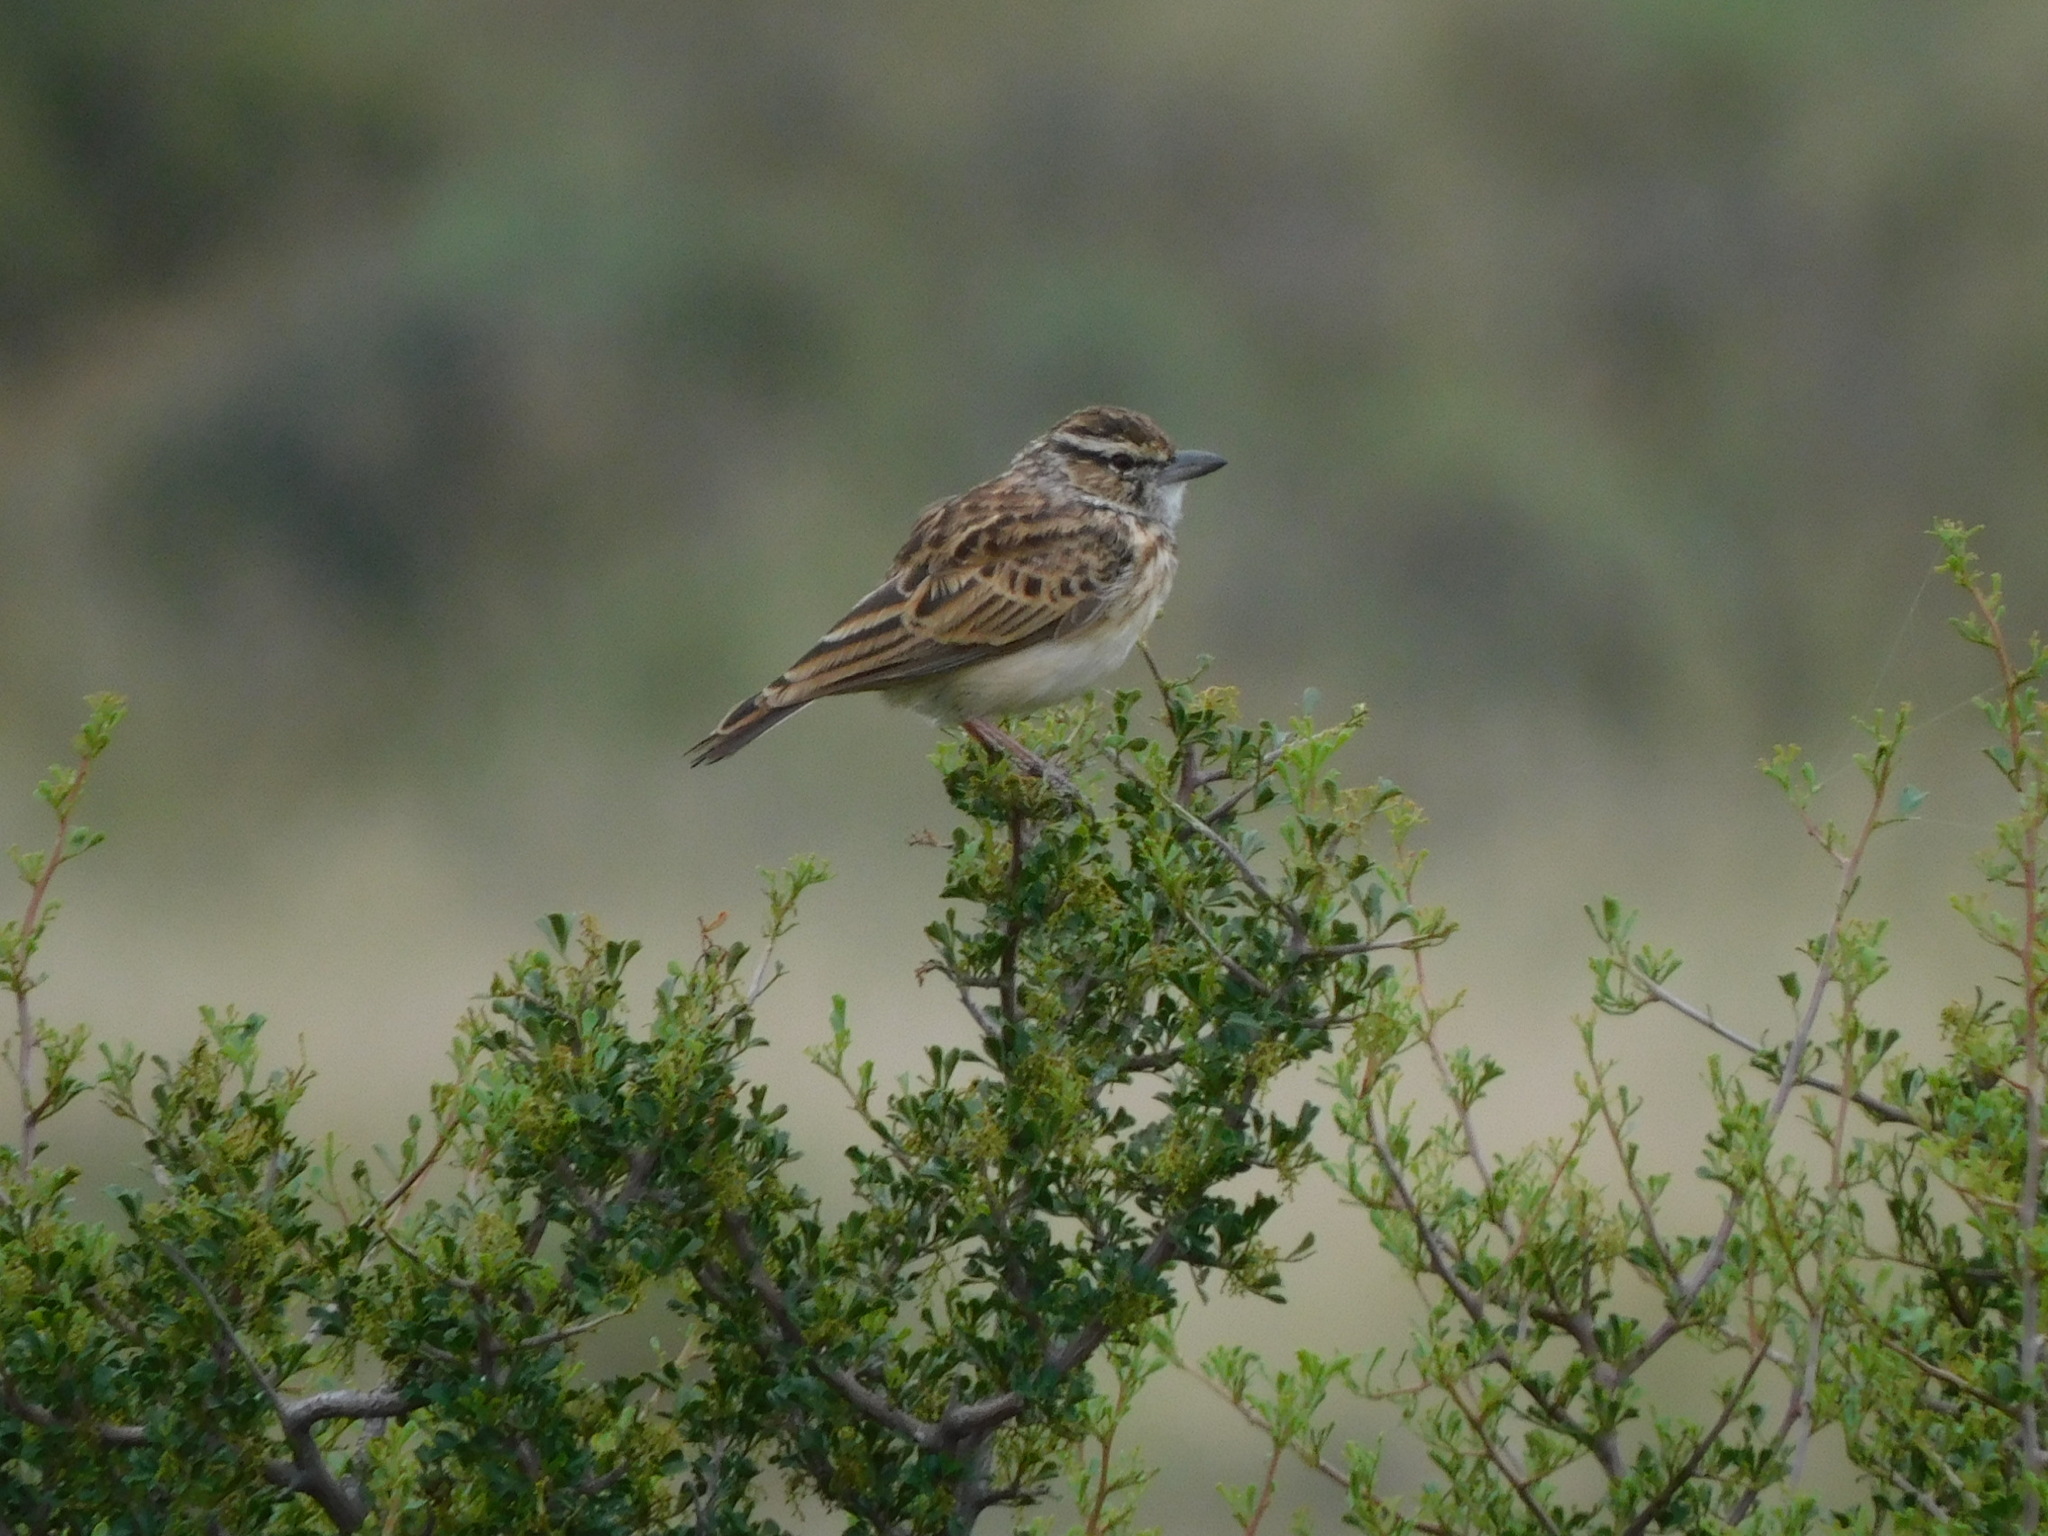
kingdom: Animalia
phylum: Chordata
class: Aves
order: Passeriformes
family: Alaudidae
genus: Calendulauda
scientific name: Calendulauda sabota
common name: Sabota lark
